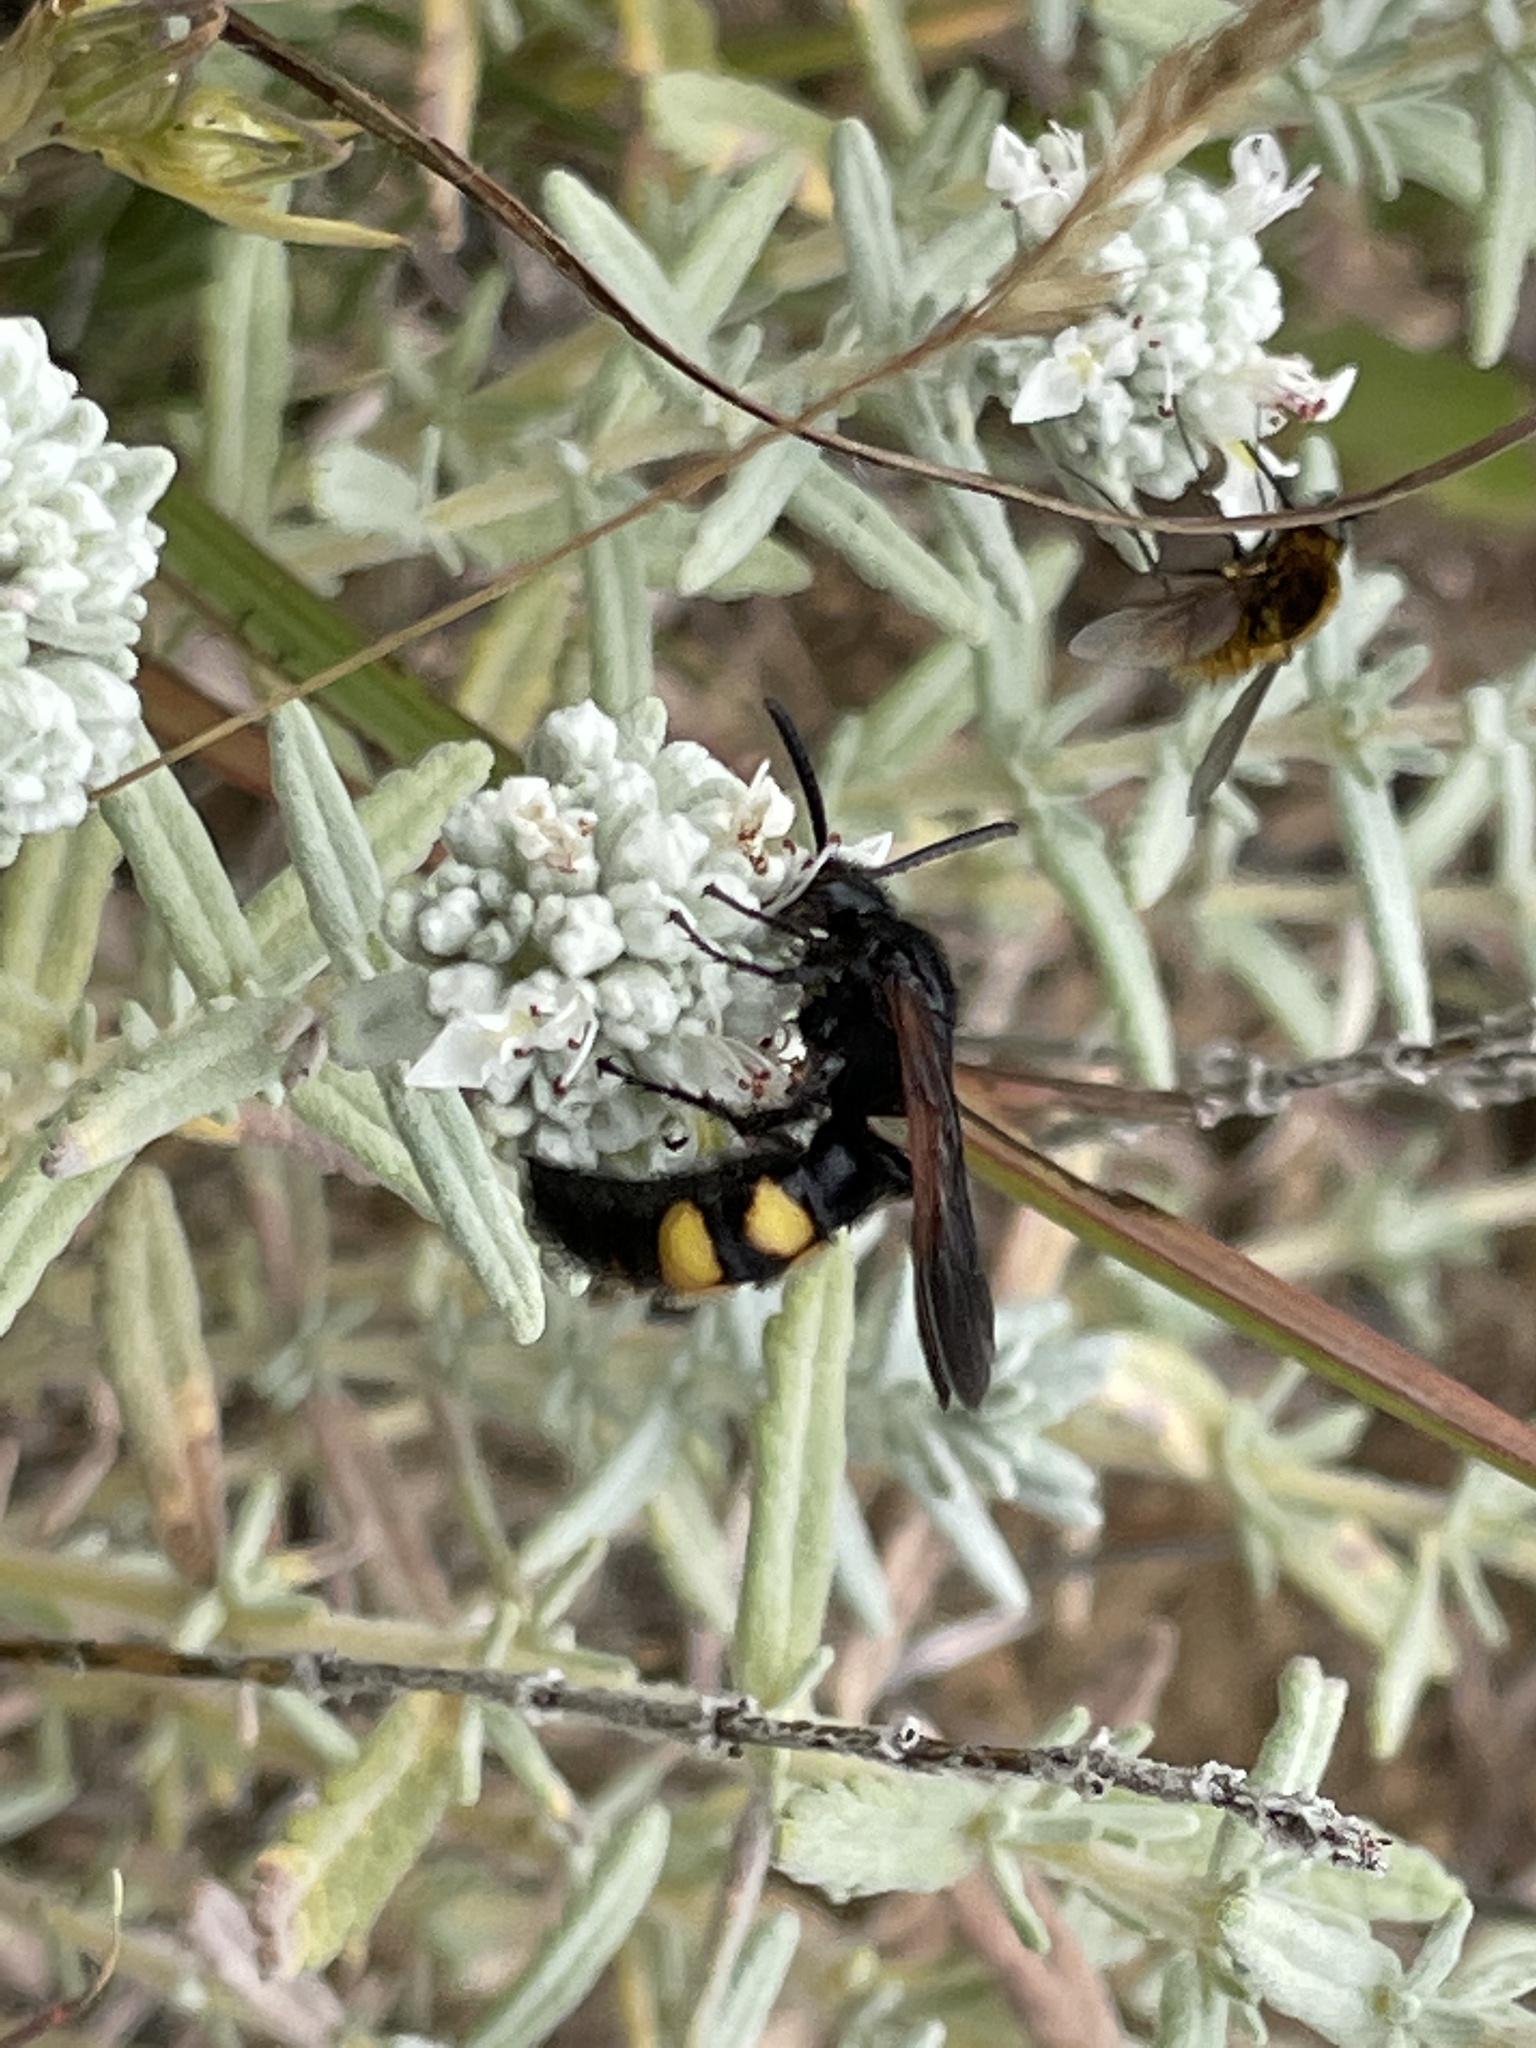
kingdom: Animalia
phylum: Arthropoda
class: Insecta
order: Hymenoptera
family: Scoliidae
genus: Scolia
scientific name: Scolia hirta
